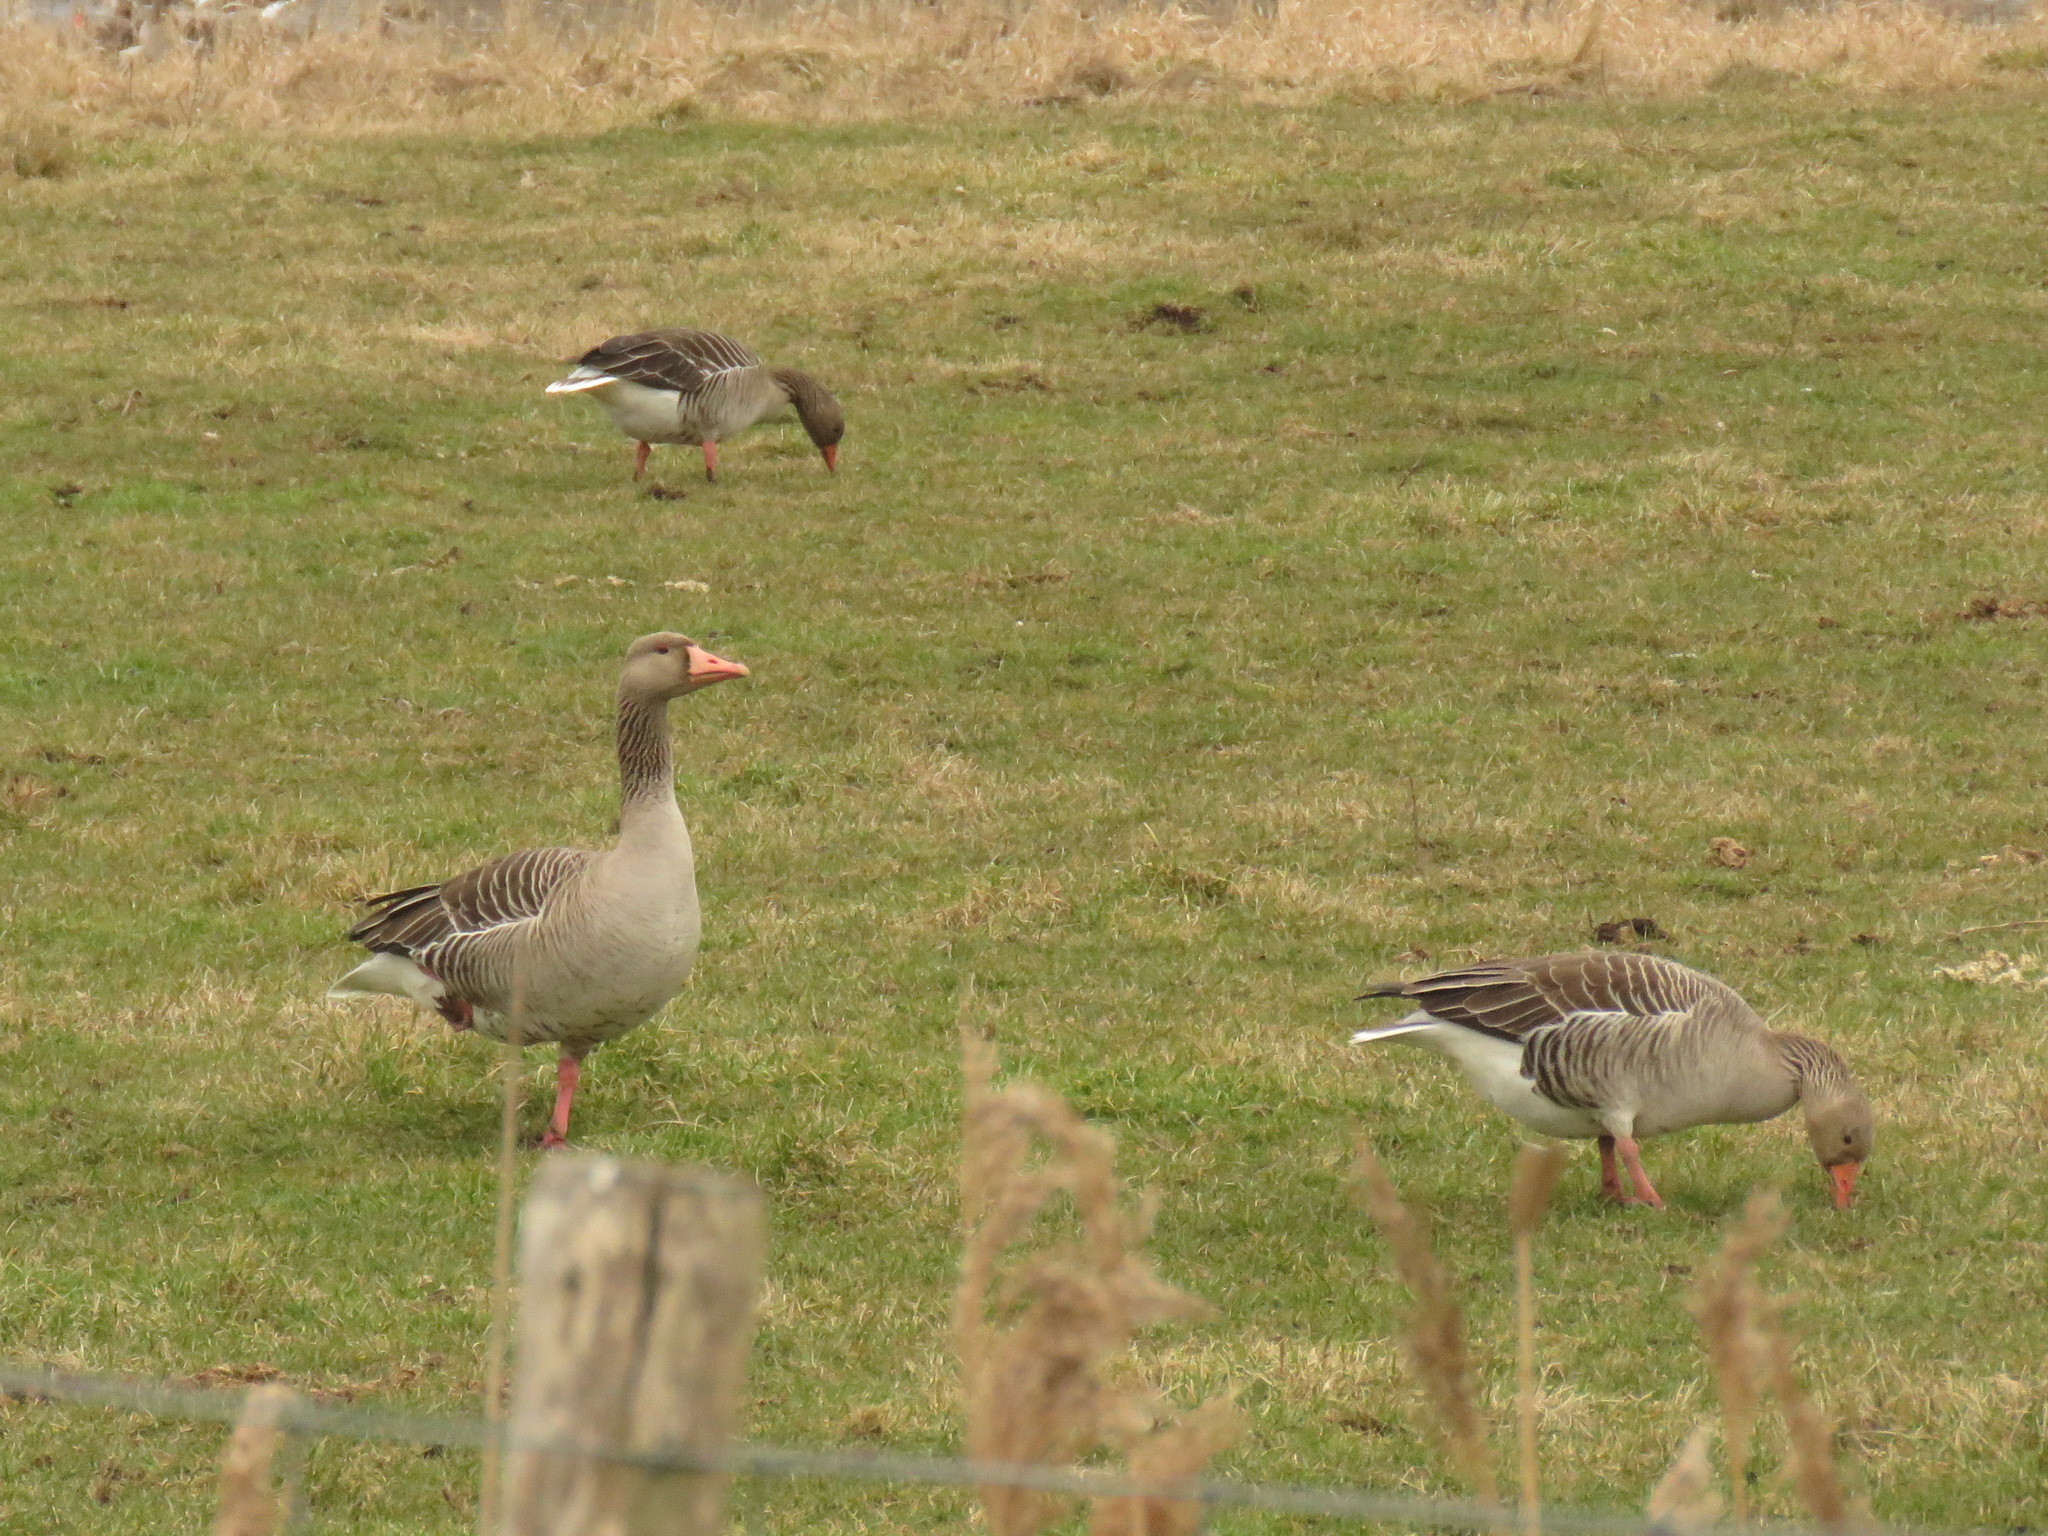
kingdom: Animalia
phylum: Chordata
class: Aves
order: Anseriformes
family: Anatidae
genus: Anser
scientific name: Anser anser
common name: Greylag goose
